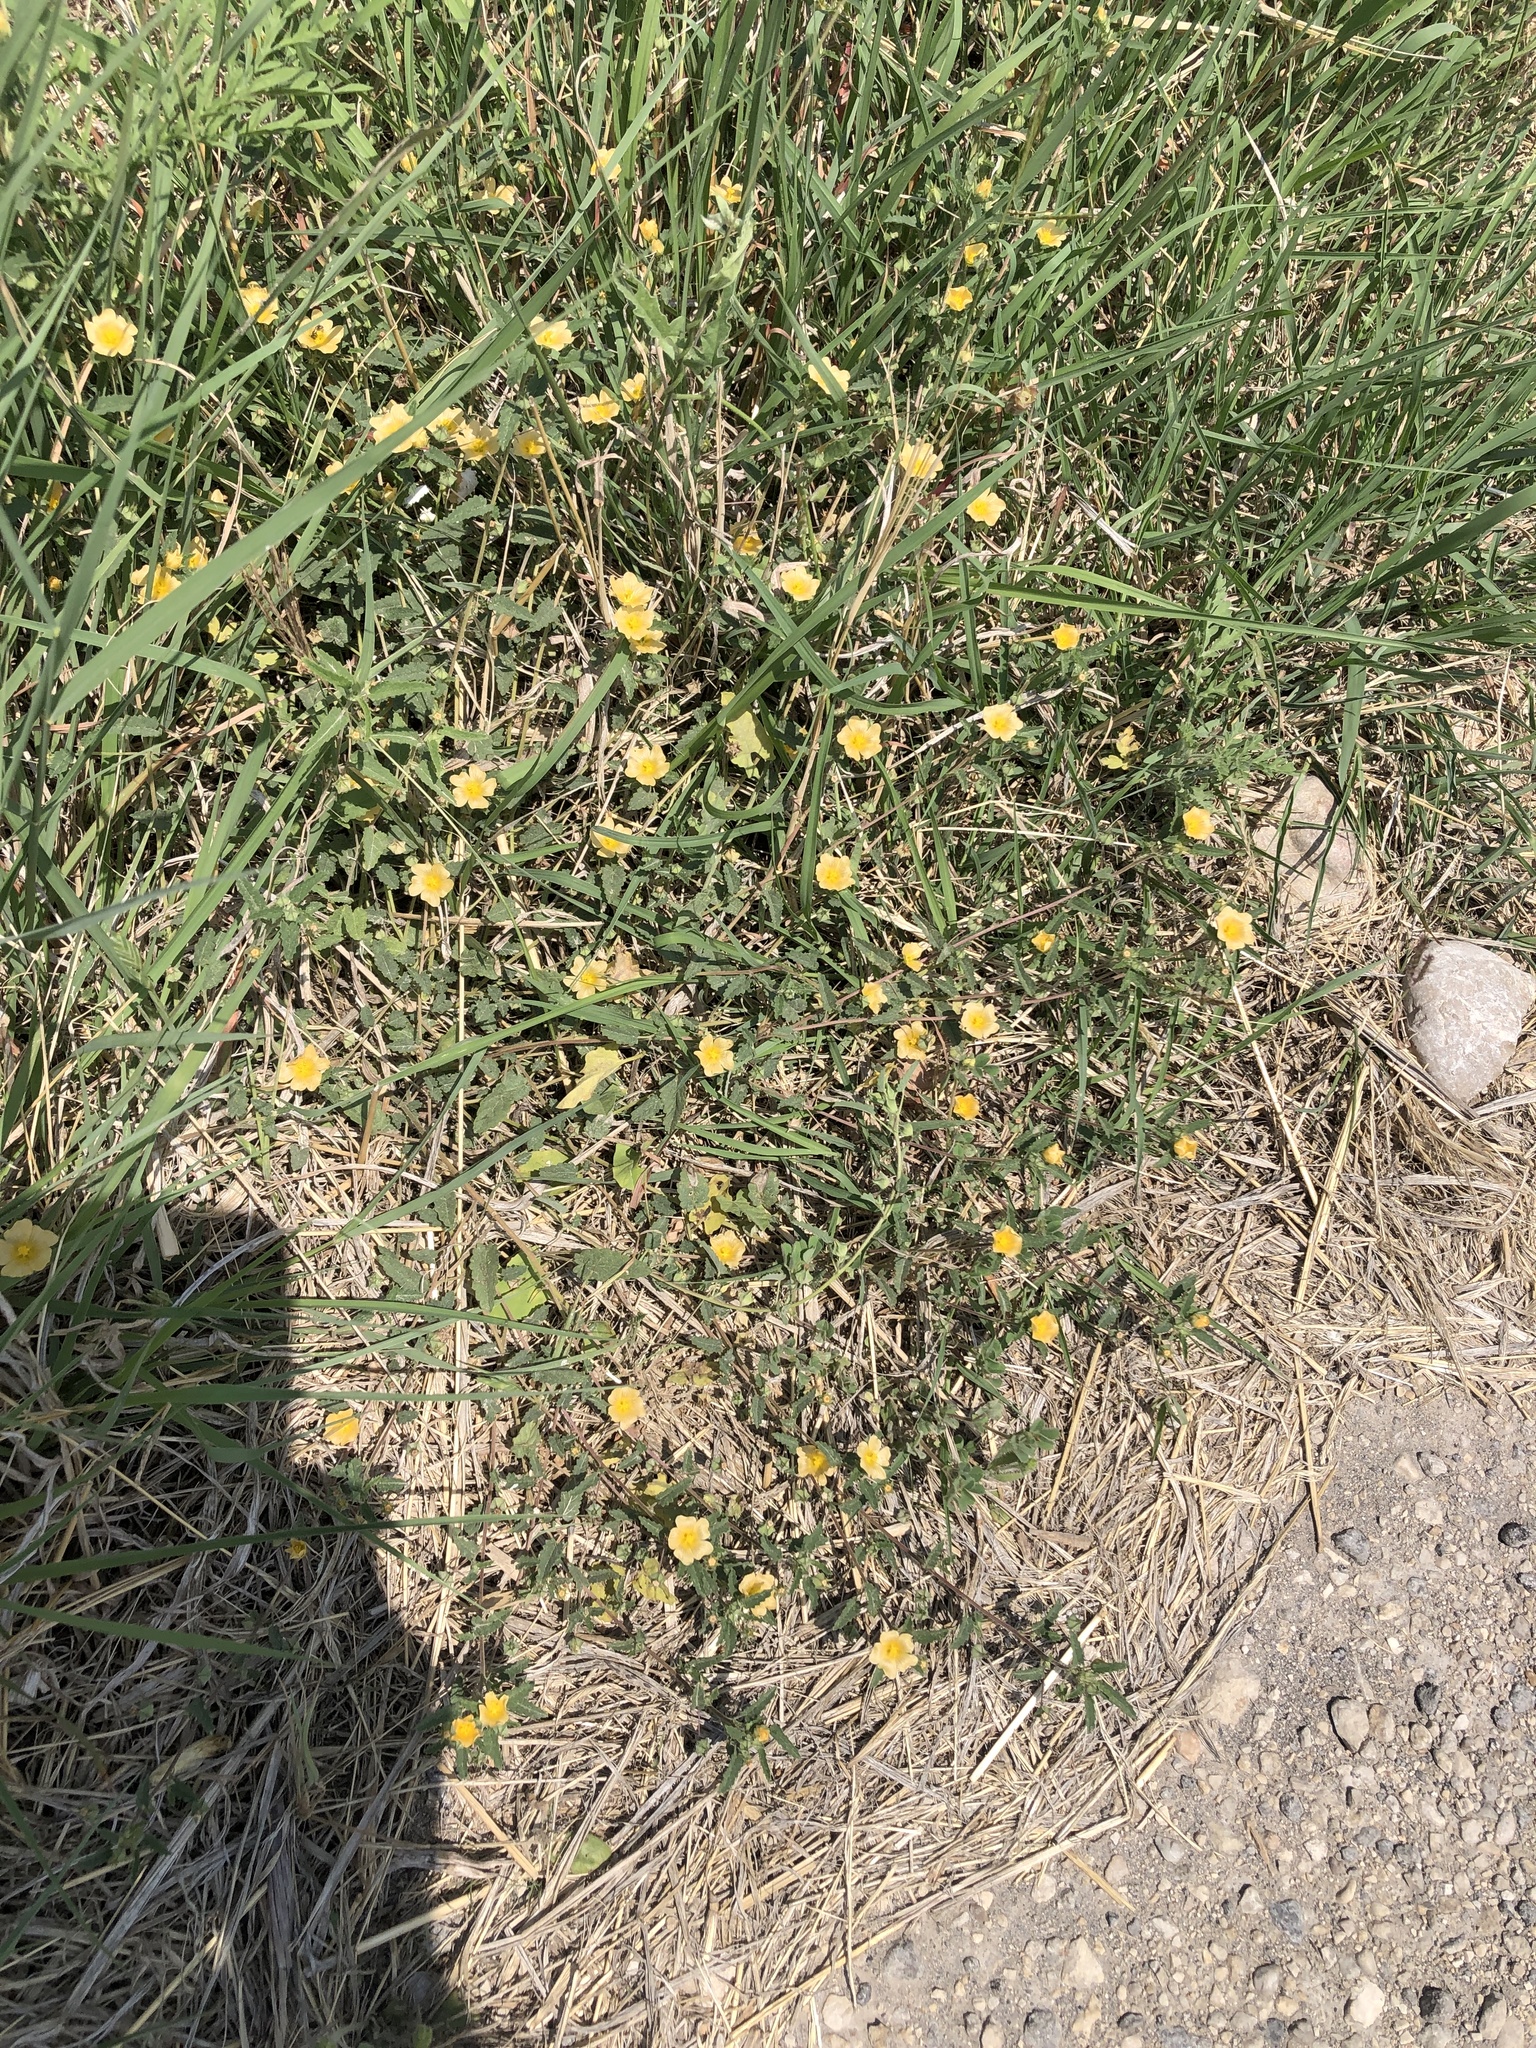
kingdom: Plantae
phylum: Tracheophyta
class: Magnoliopsida
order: Malvales
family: Malvaceae
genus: Sida
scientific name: Sida abutilifolia
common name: Spreading fanpetals
